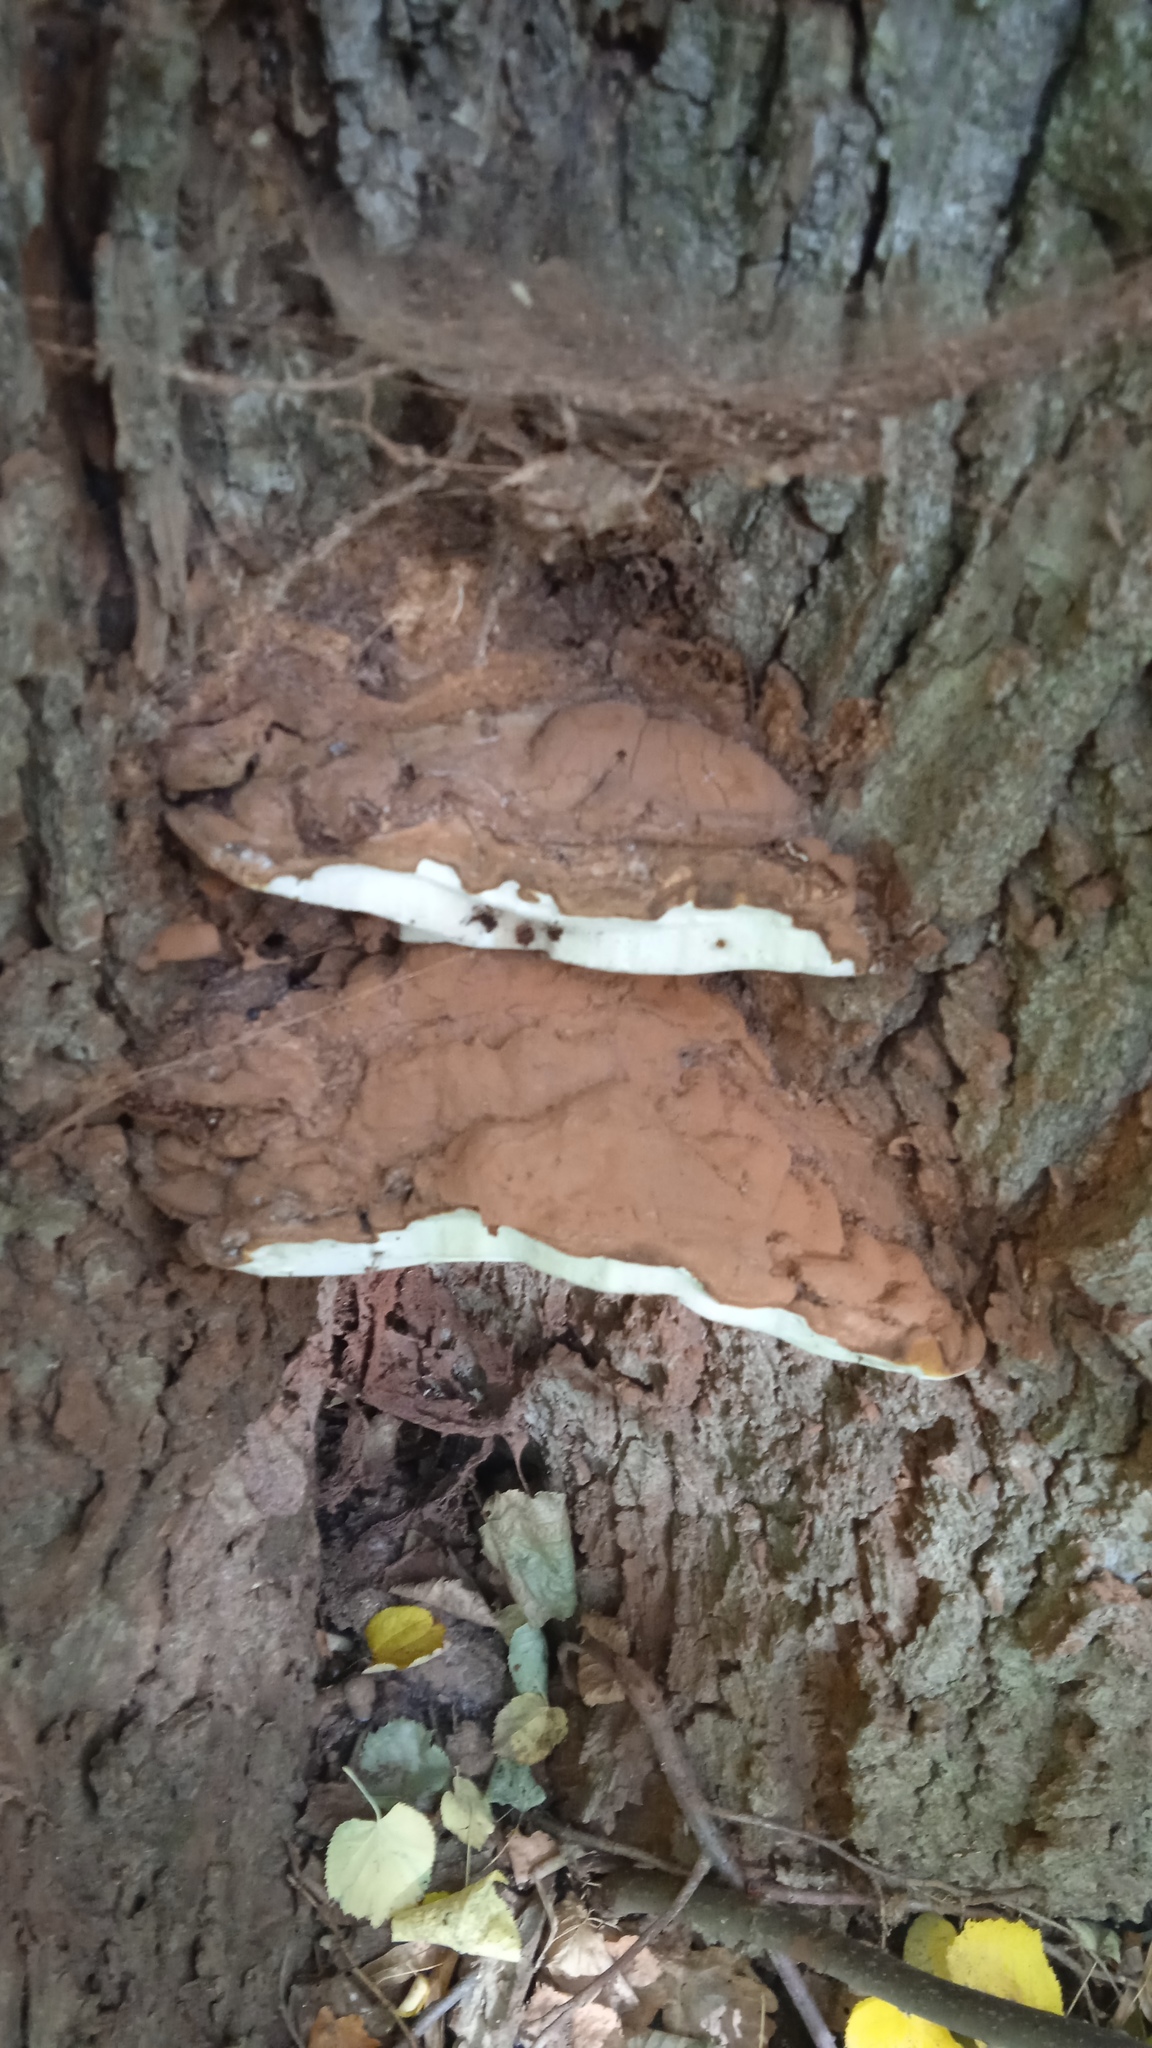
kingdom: Fungi
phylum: Basidiomycota
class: Agaricomycetes
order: Polyporales
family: Polyporaceae
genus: Ganoderma
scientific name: Ganoderma applanatum
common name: Artist's bracket
